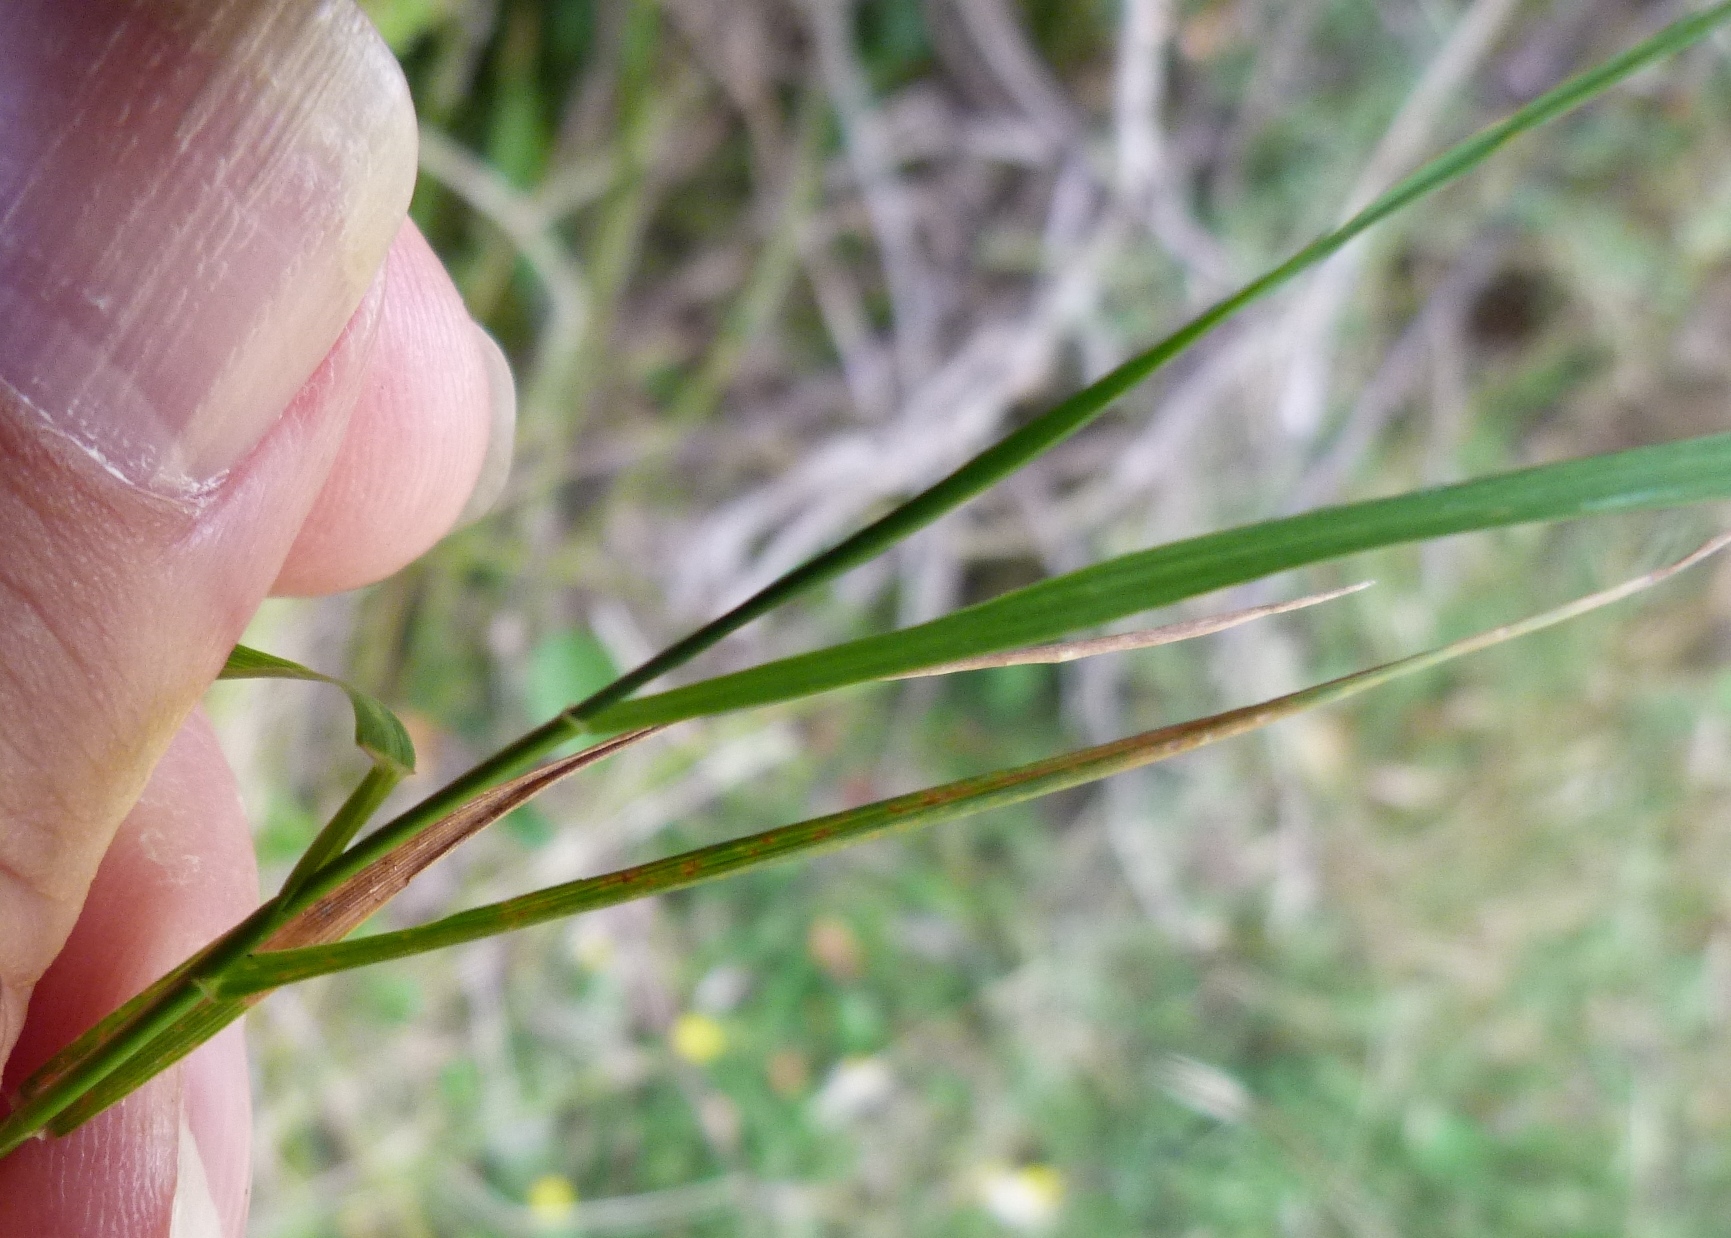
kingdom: Plantae
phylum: Tracheophyta
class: Liliopsida
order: Poales
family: Poaceae
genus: Agrostis
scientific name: Agrostis capillaris
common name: Colonial bentgrass
